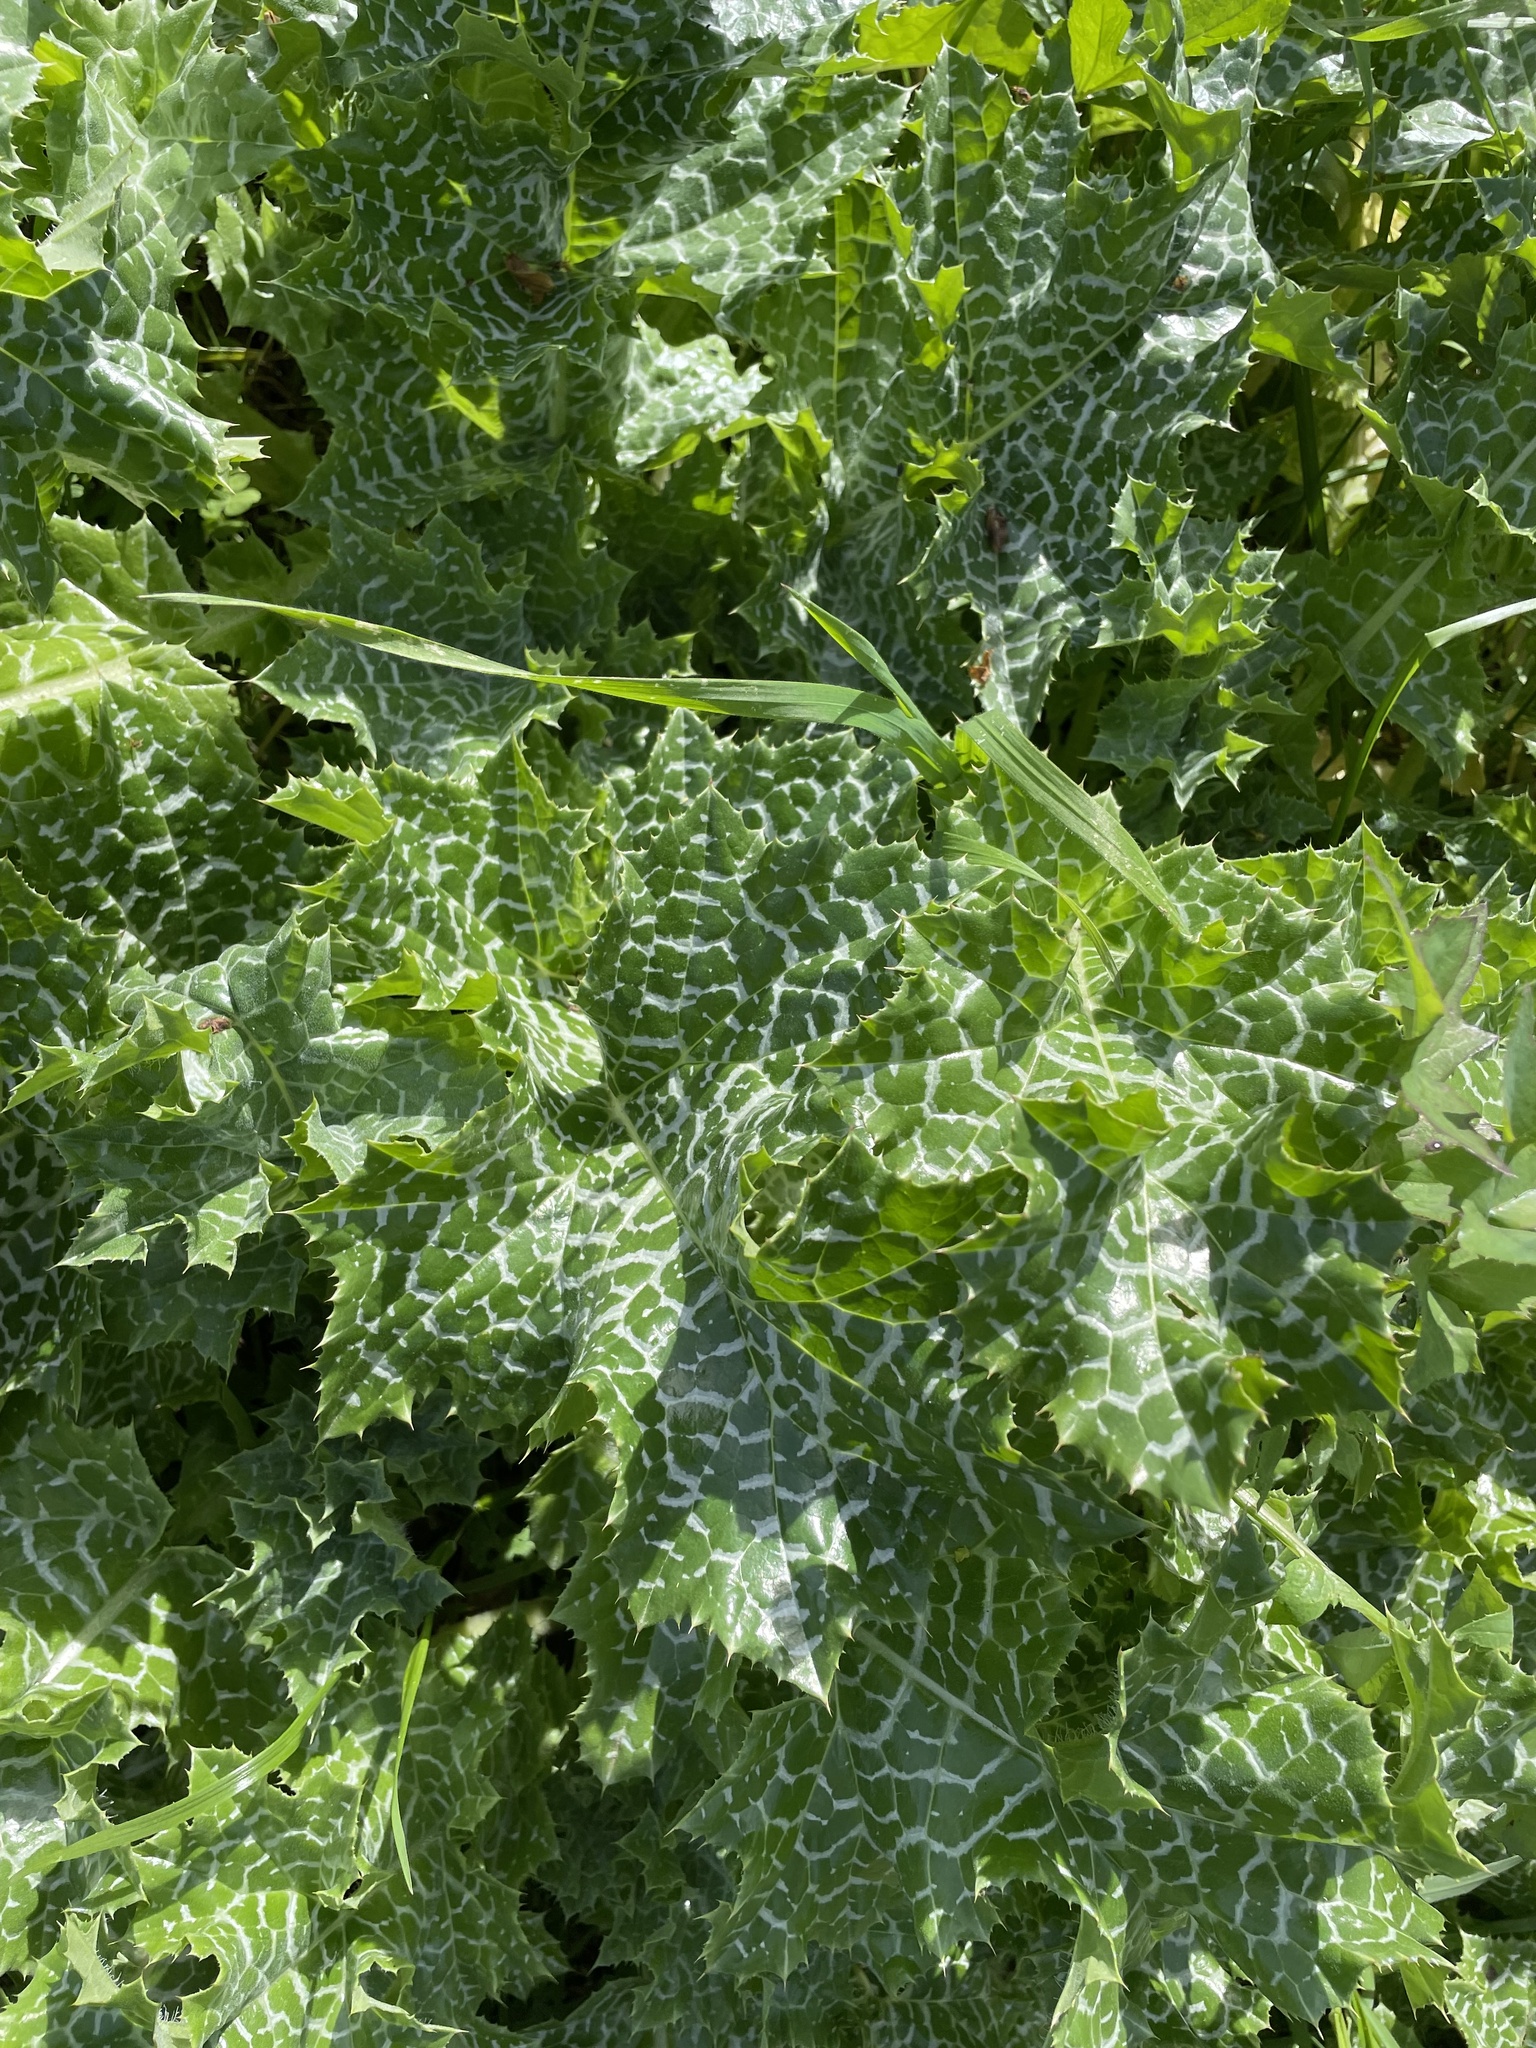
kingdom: Plantae
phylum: Tracheophyta
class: Magnoliopsida
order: Asterales
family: Asteraceae
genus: Silybum
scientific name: Silybum marianum
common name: Milk thistle
